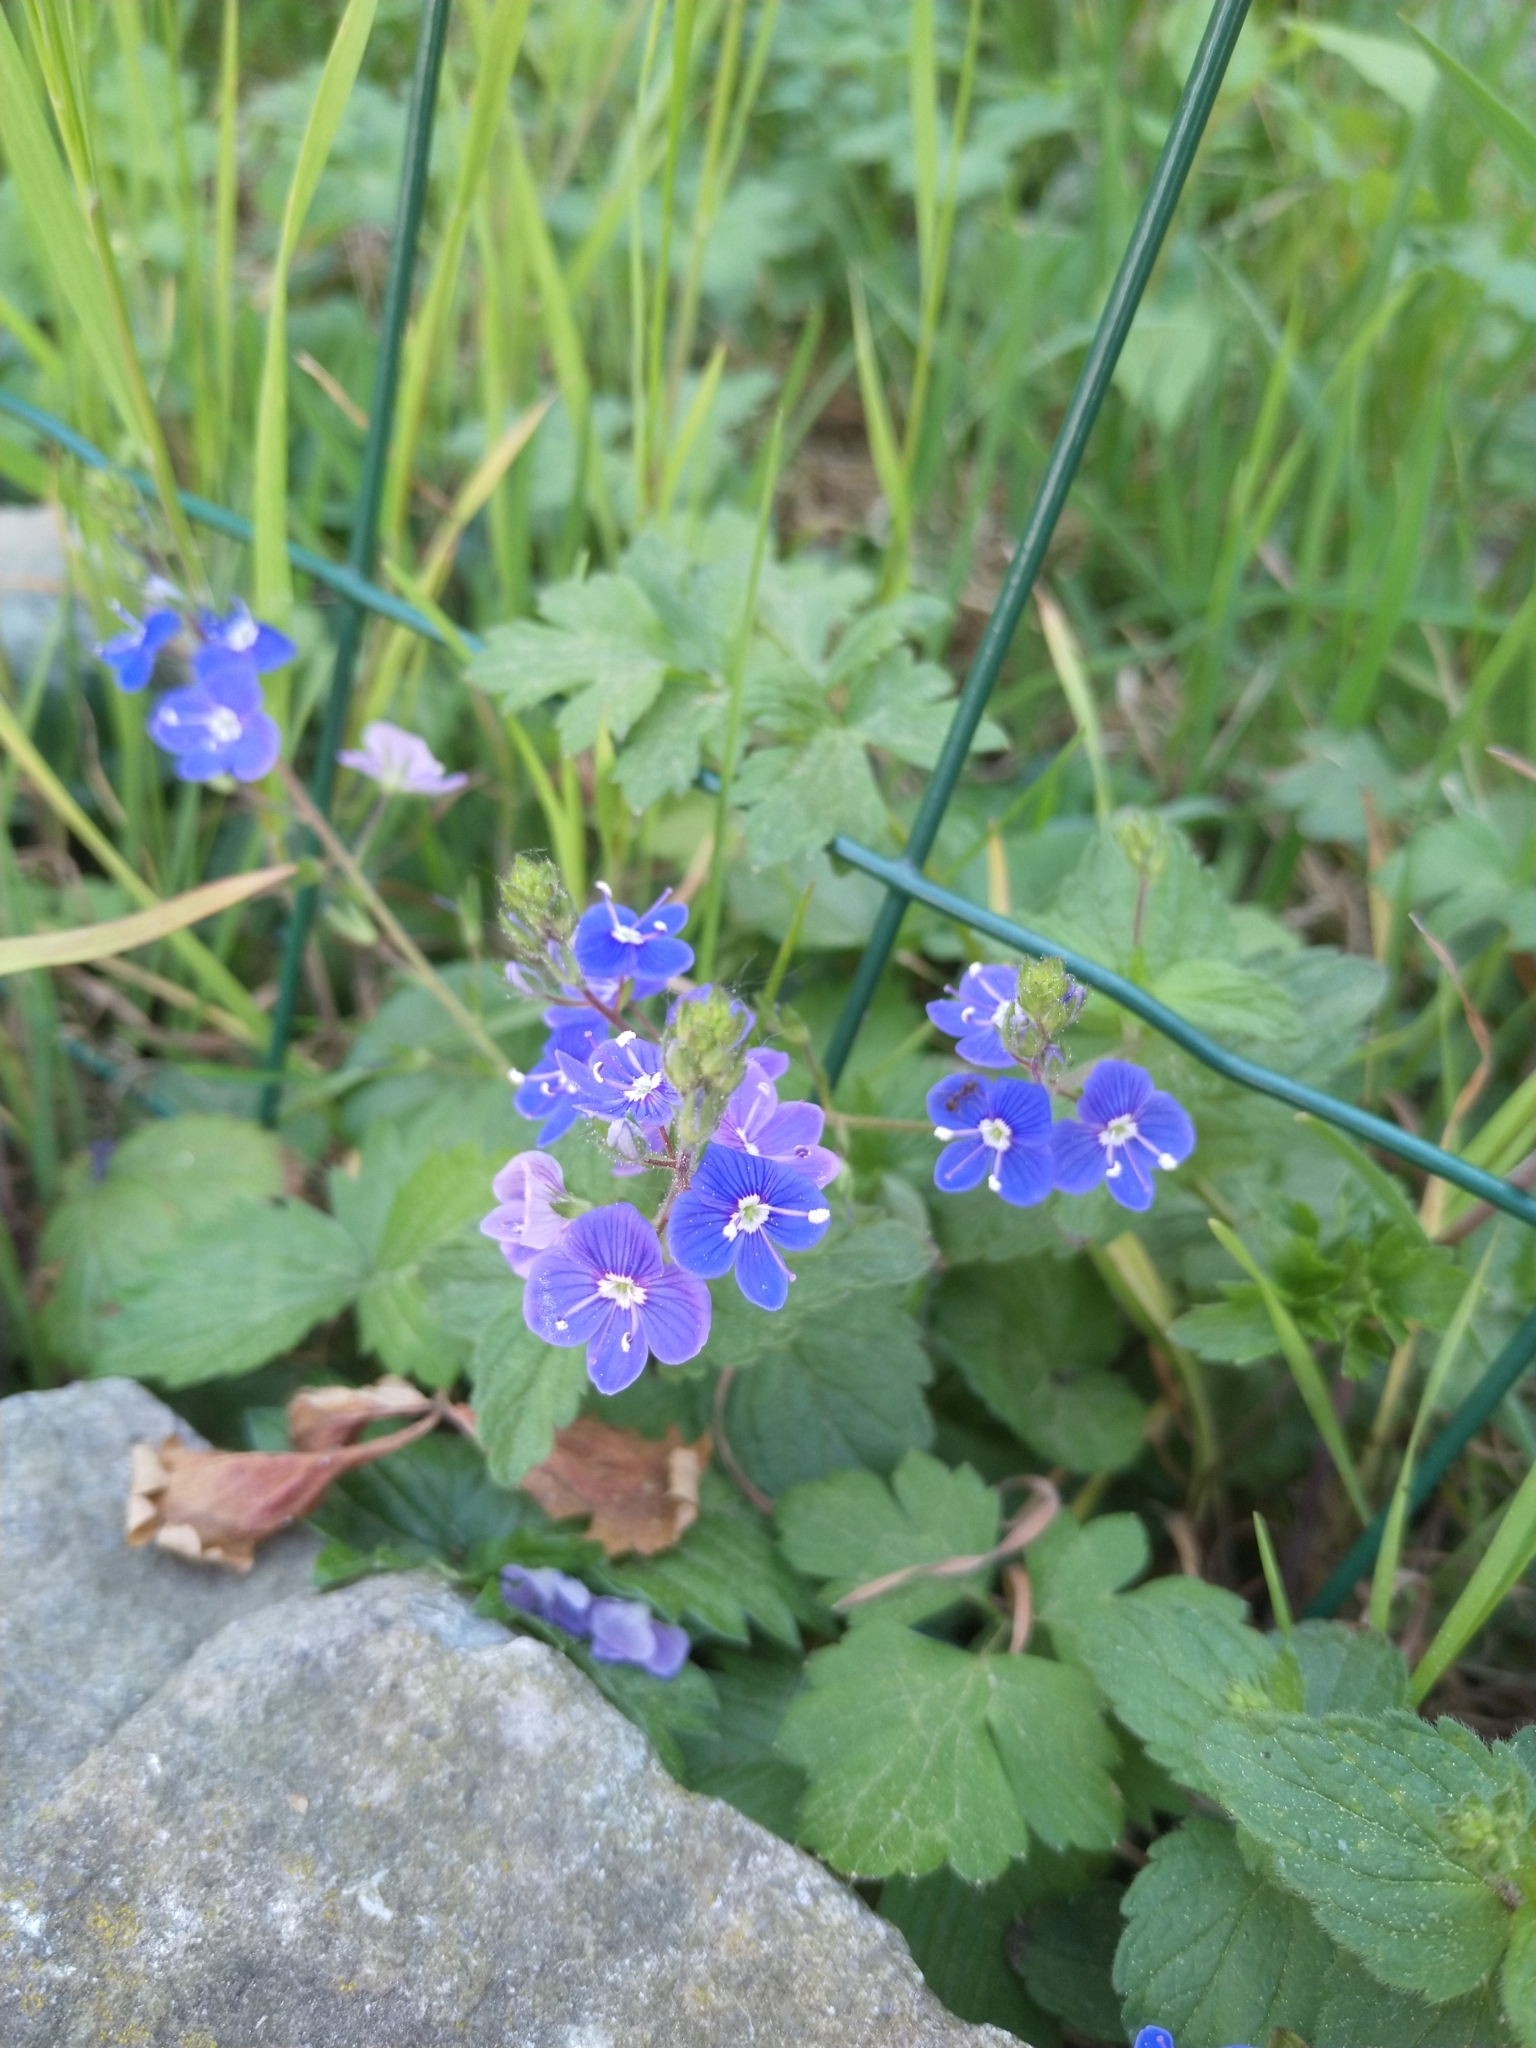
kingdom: Plantae
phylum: Tracheophyta
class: Magnoliopsida
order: Lamiales
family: Plantaginaceae
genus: Veronica
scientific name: Veronica chamaedrys
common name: Germander speedwell
